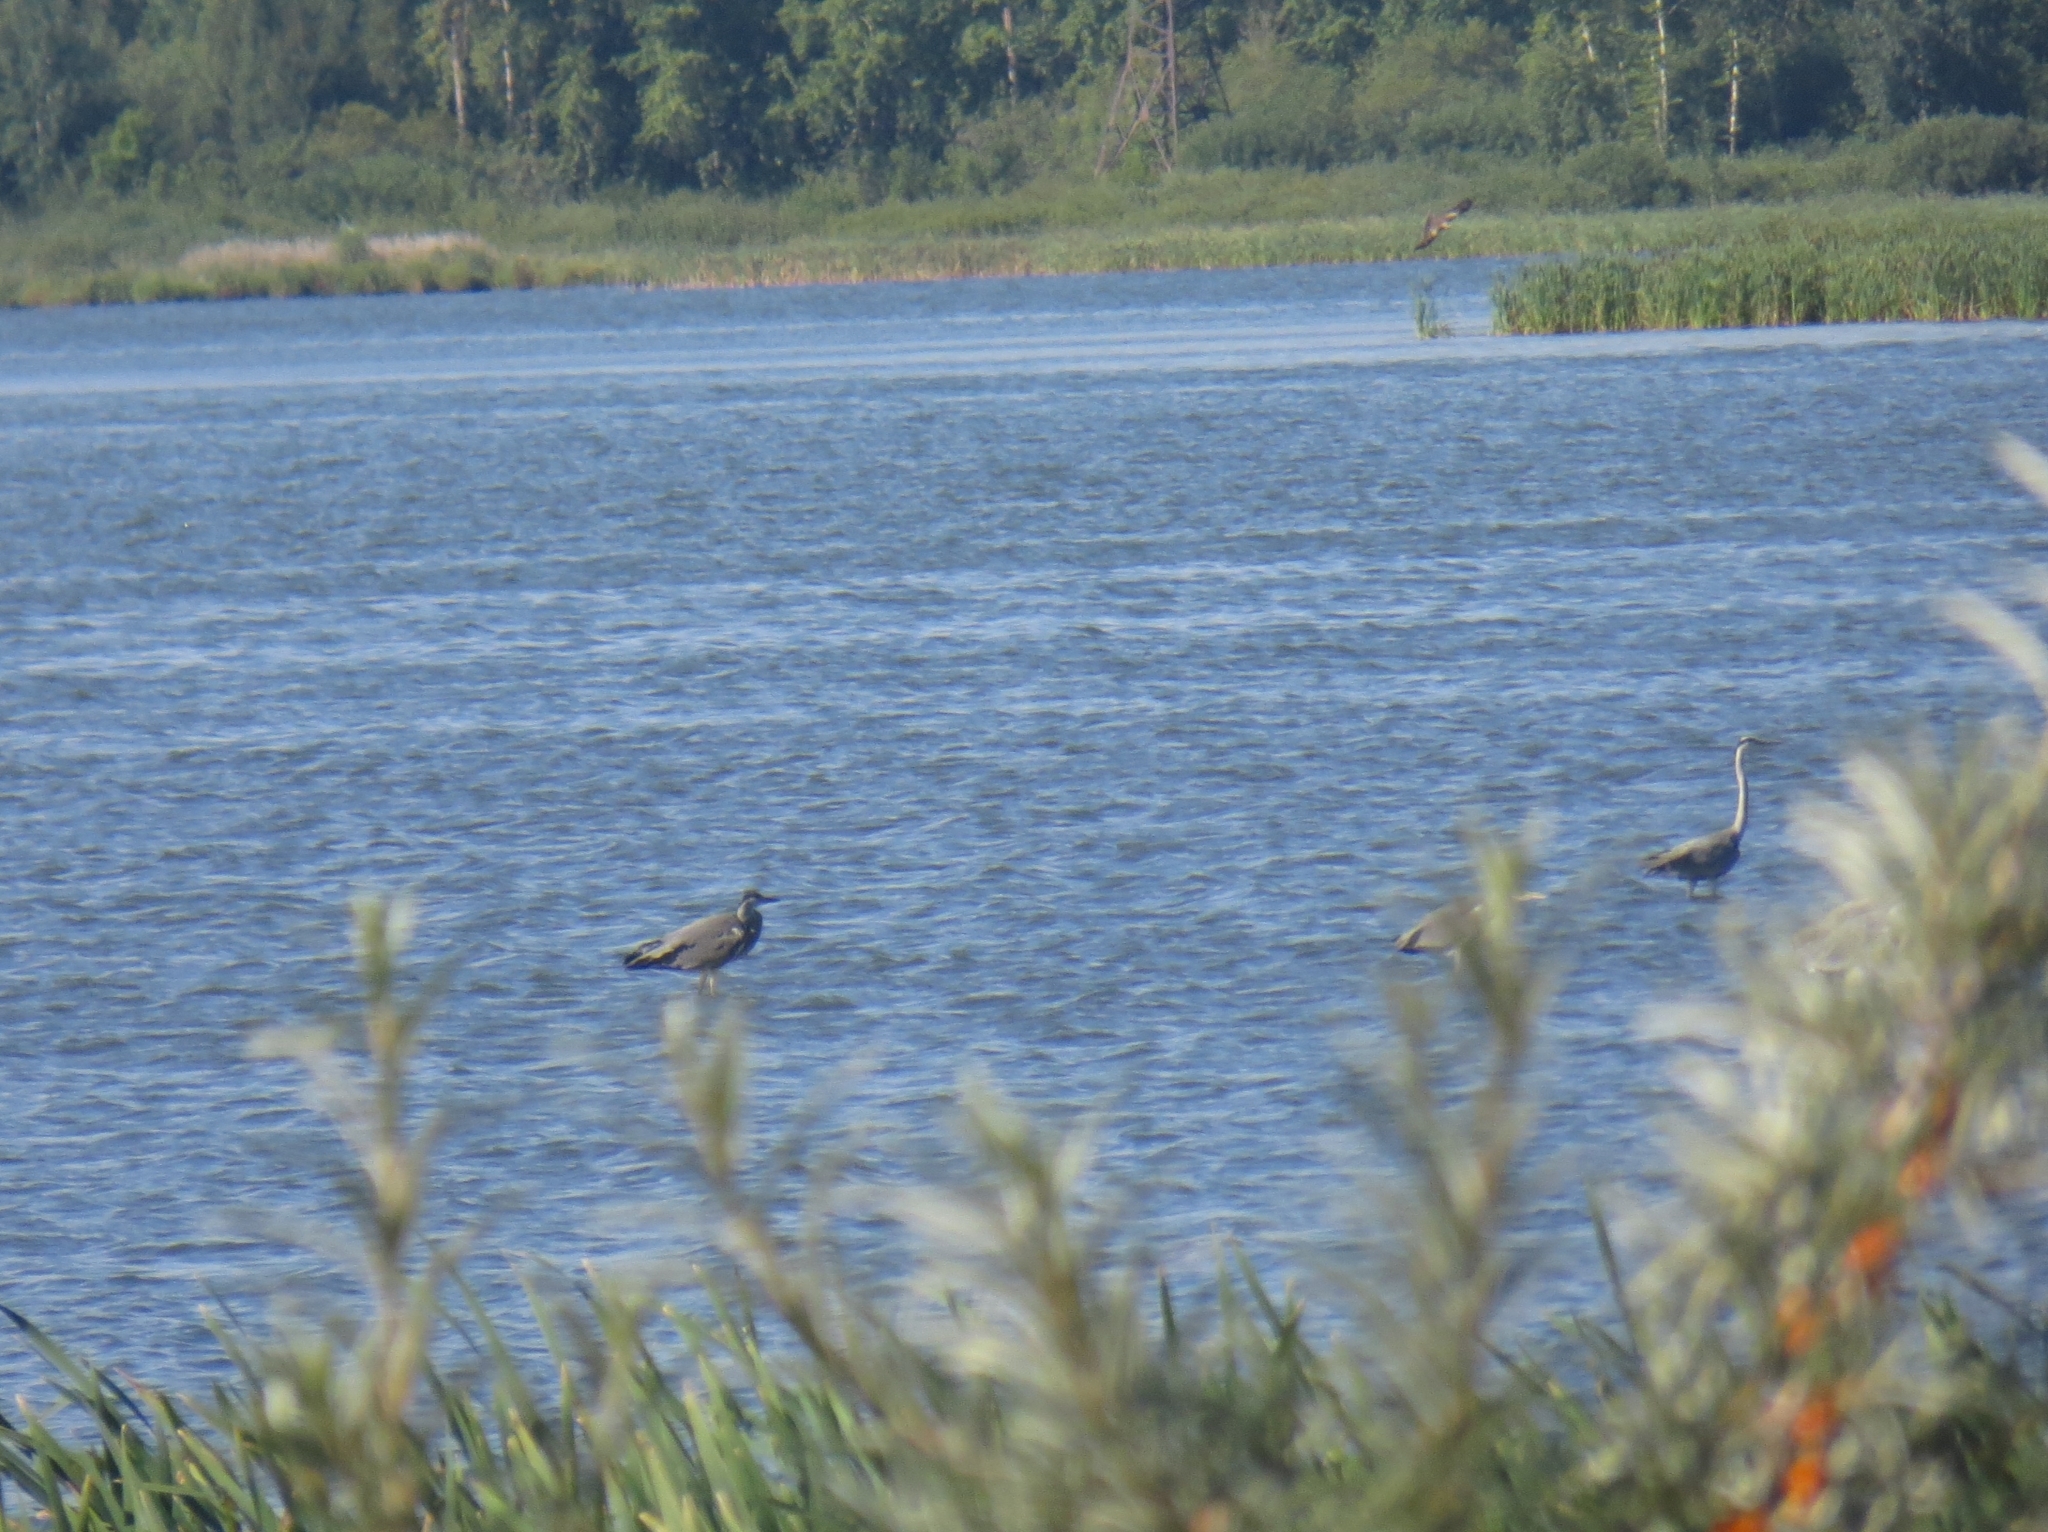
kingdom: Animalia
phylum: Chordata
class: Aves
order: Pelecaniformes
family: Ardeidae
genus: Ardea
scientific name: Ardea cinerea
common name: Grey heron
